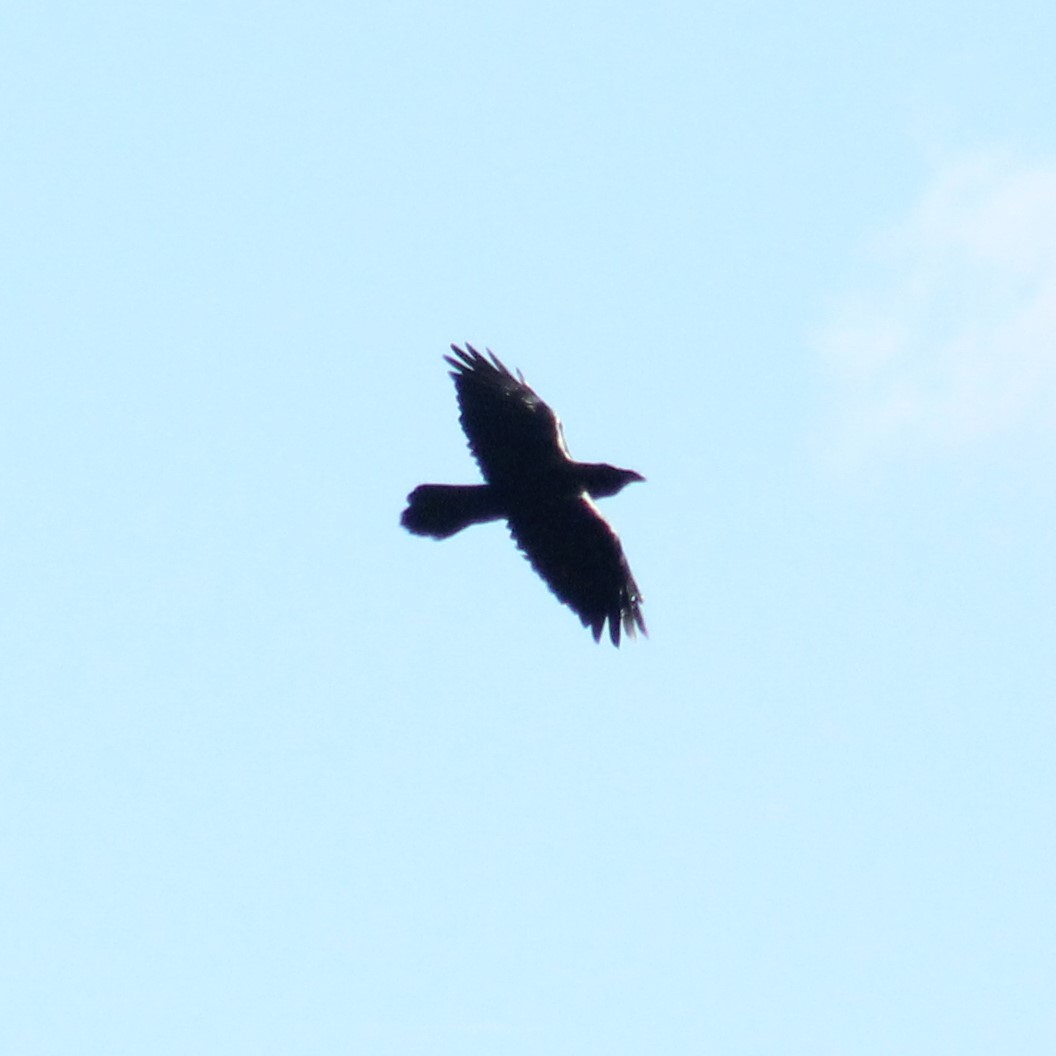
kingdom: Animalia
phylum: Chordata
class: Aves
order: Passeriformes
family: Corvidae
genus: Corvus
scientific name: Corvus corax
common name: Common raven
